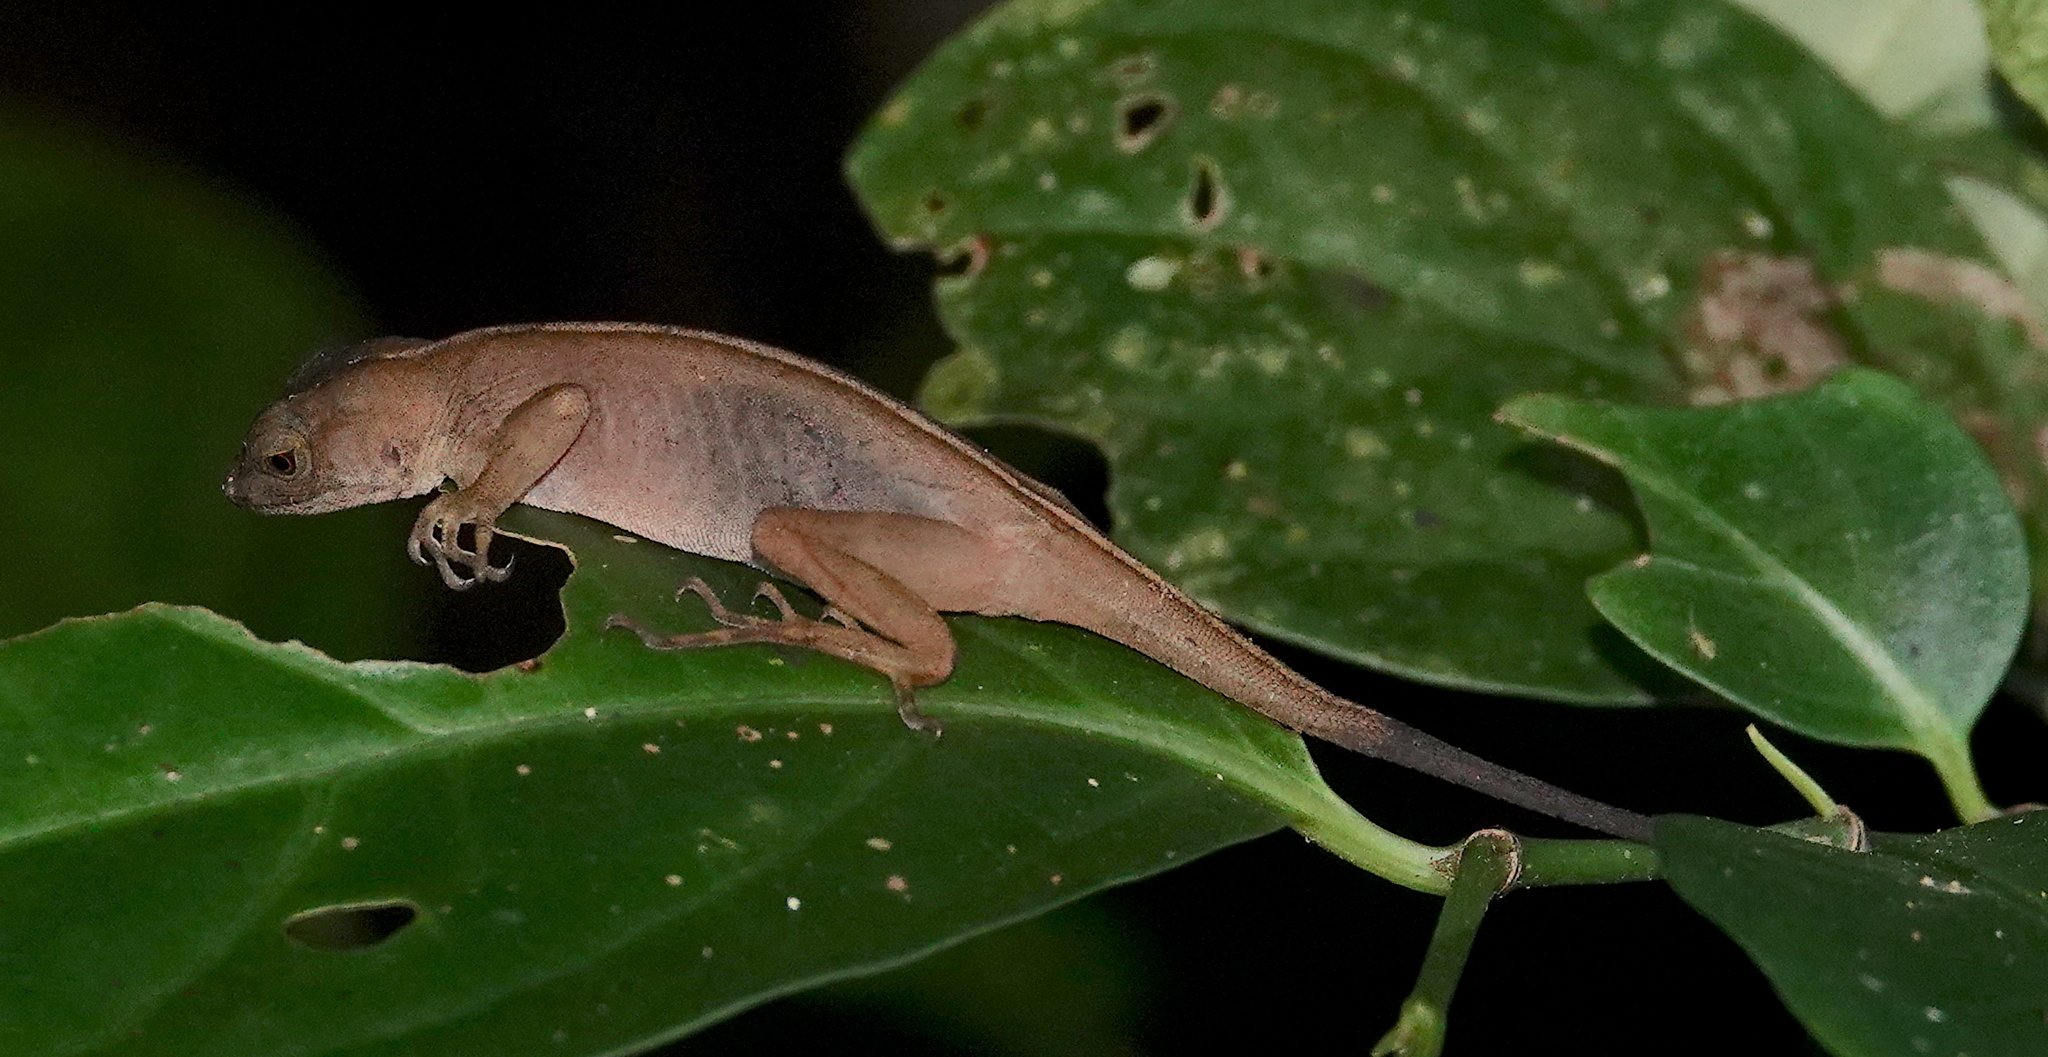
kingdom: Animalia
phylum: Chordata
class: Squamata
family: Dactyloidae
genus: Anolis
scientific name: Anolis lemurinus
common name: Ghost anole
